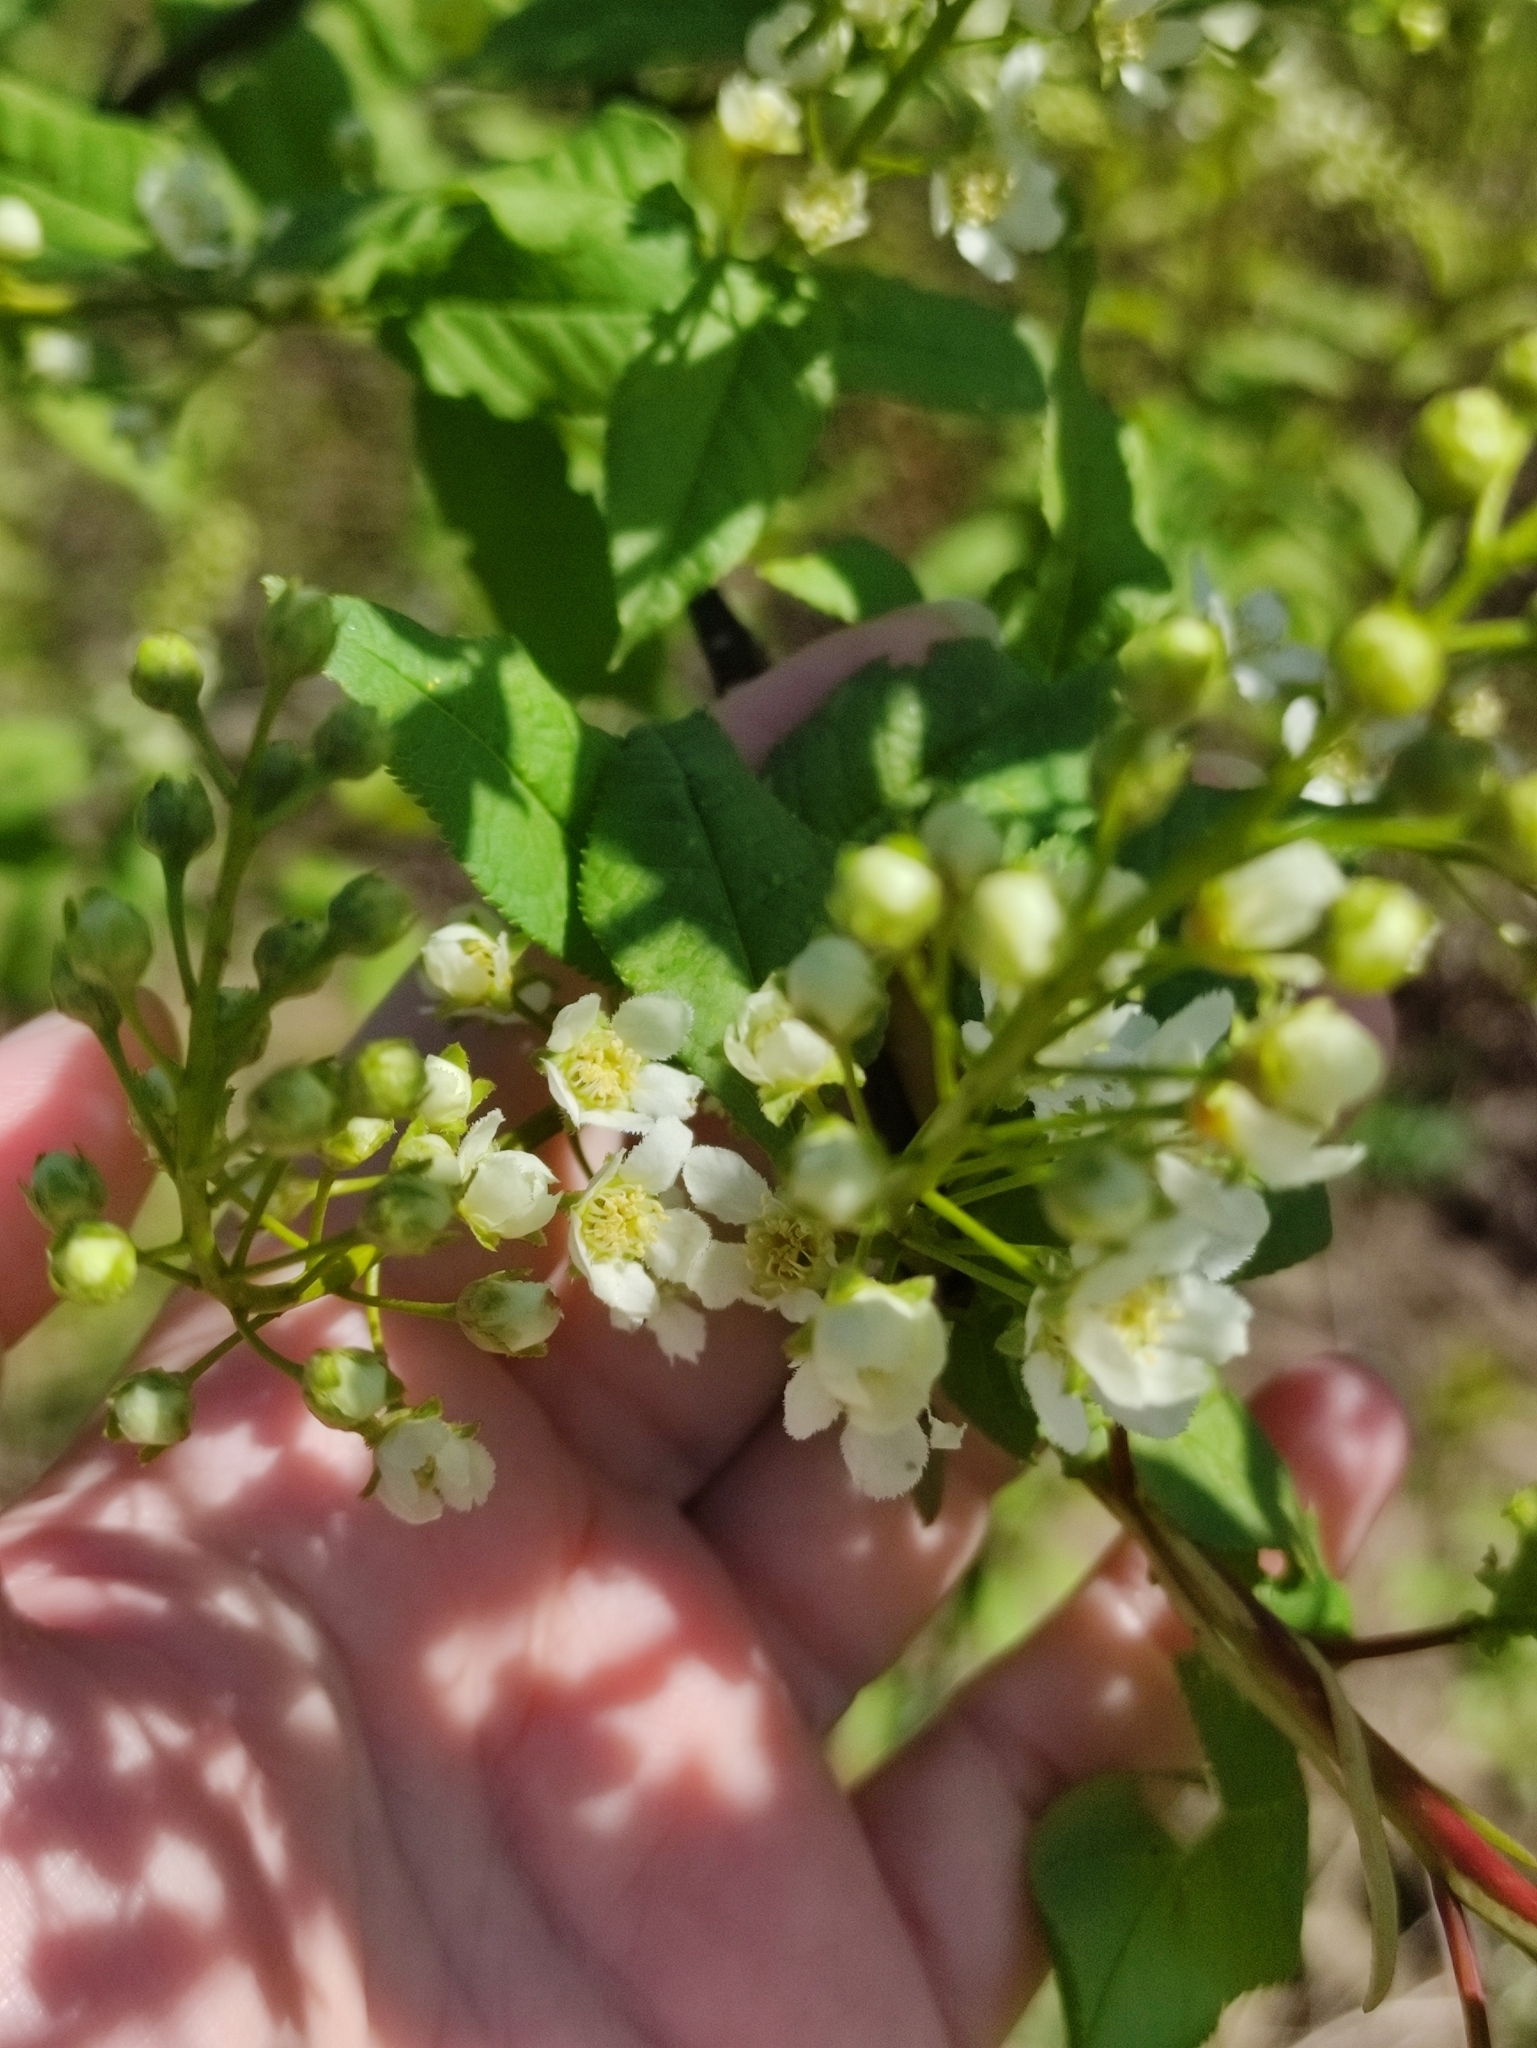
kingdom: Plantae
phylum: Tracheophyta
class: Magnoliopsida
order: Rosales
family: Rosaceae
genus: Prunus
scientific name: Prunus padus
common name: Bird cherry
